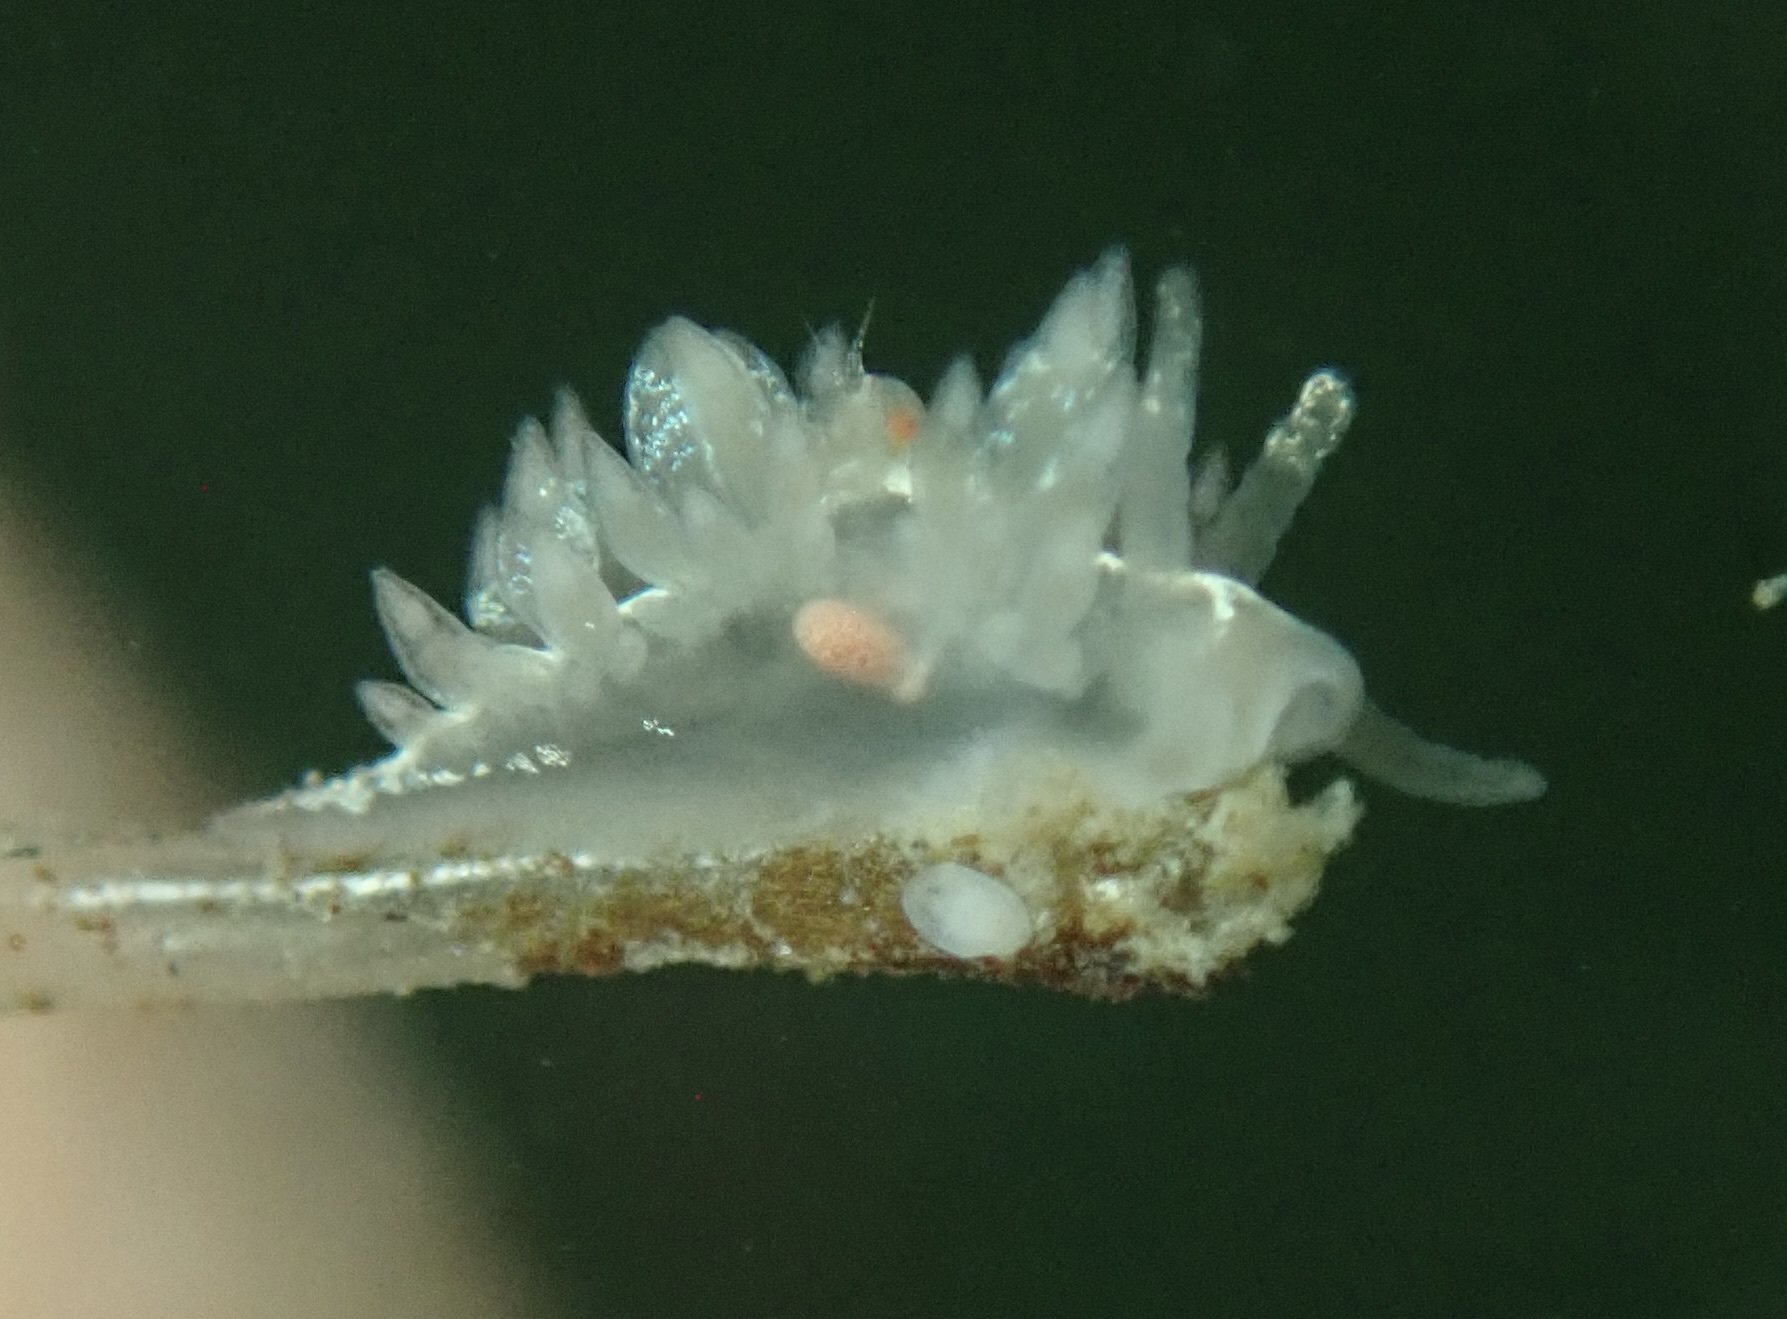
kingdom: Animalia
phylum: Mollusca
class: Gastropoda
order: Nudibranchia
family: Coryphellidae
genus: Coryphella
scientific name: Coryphella trilineata
